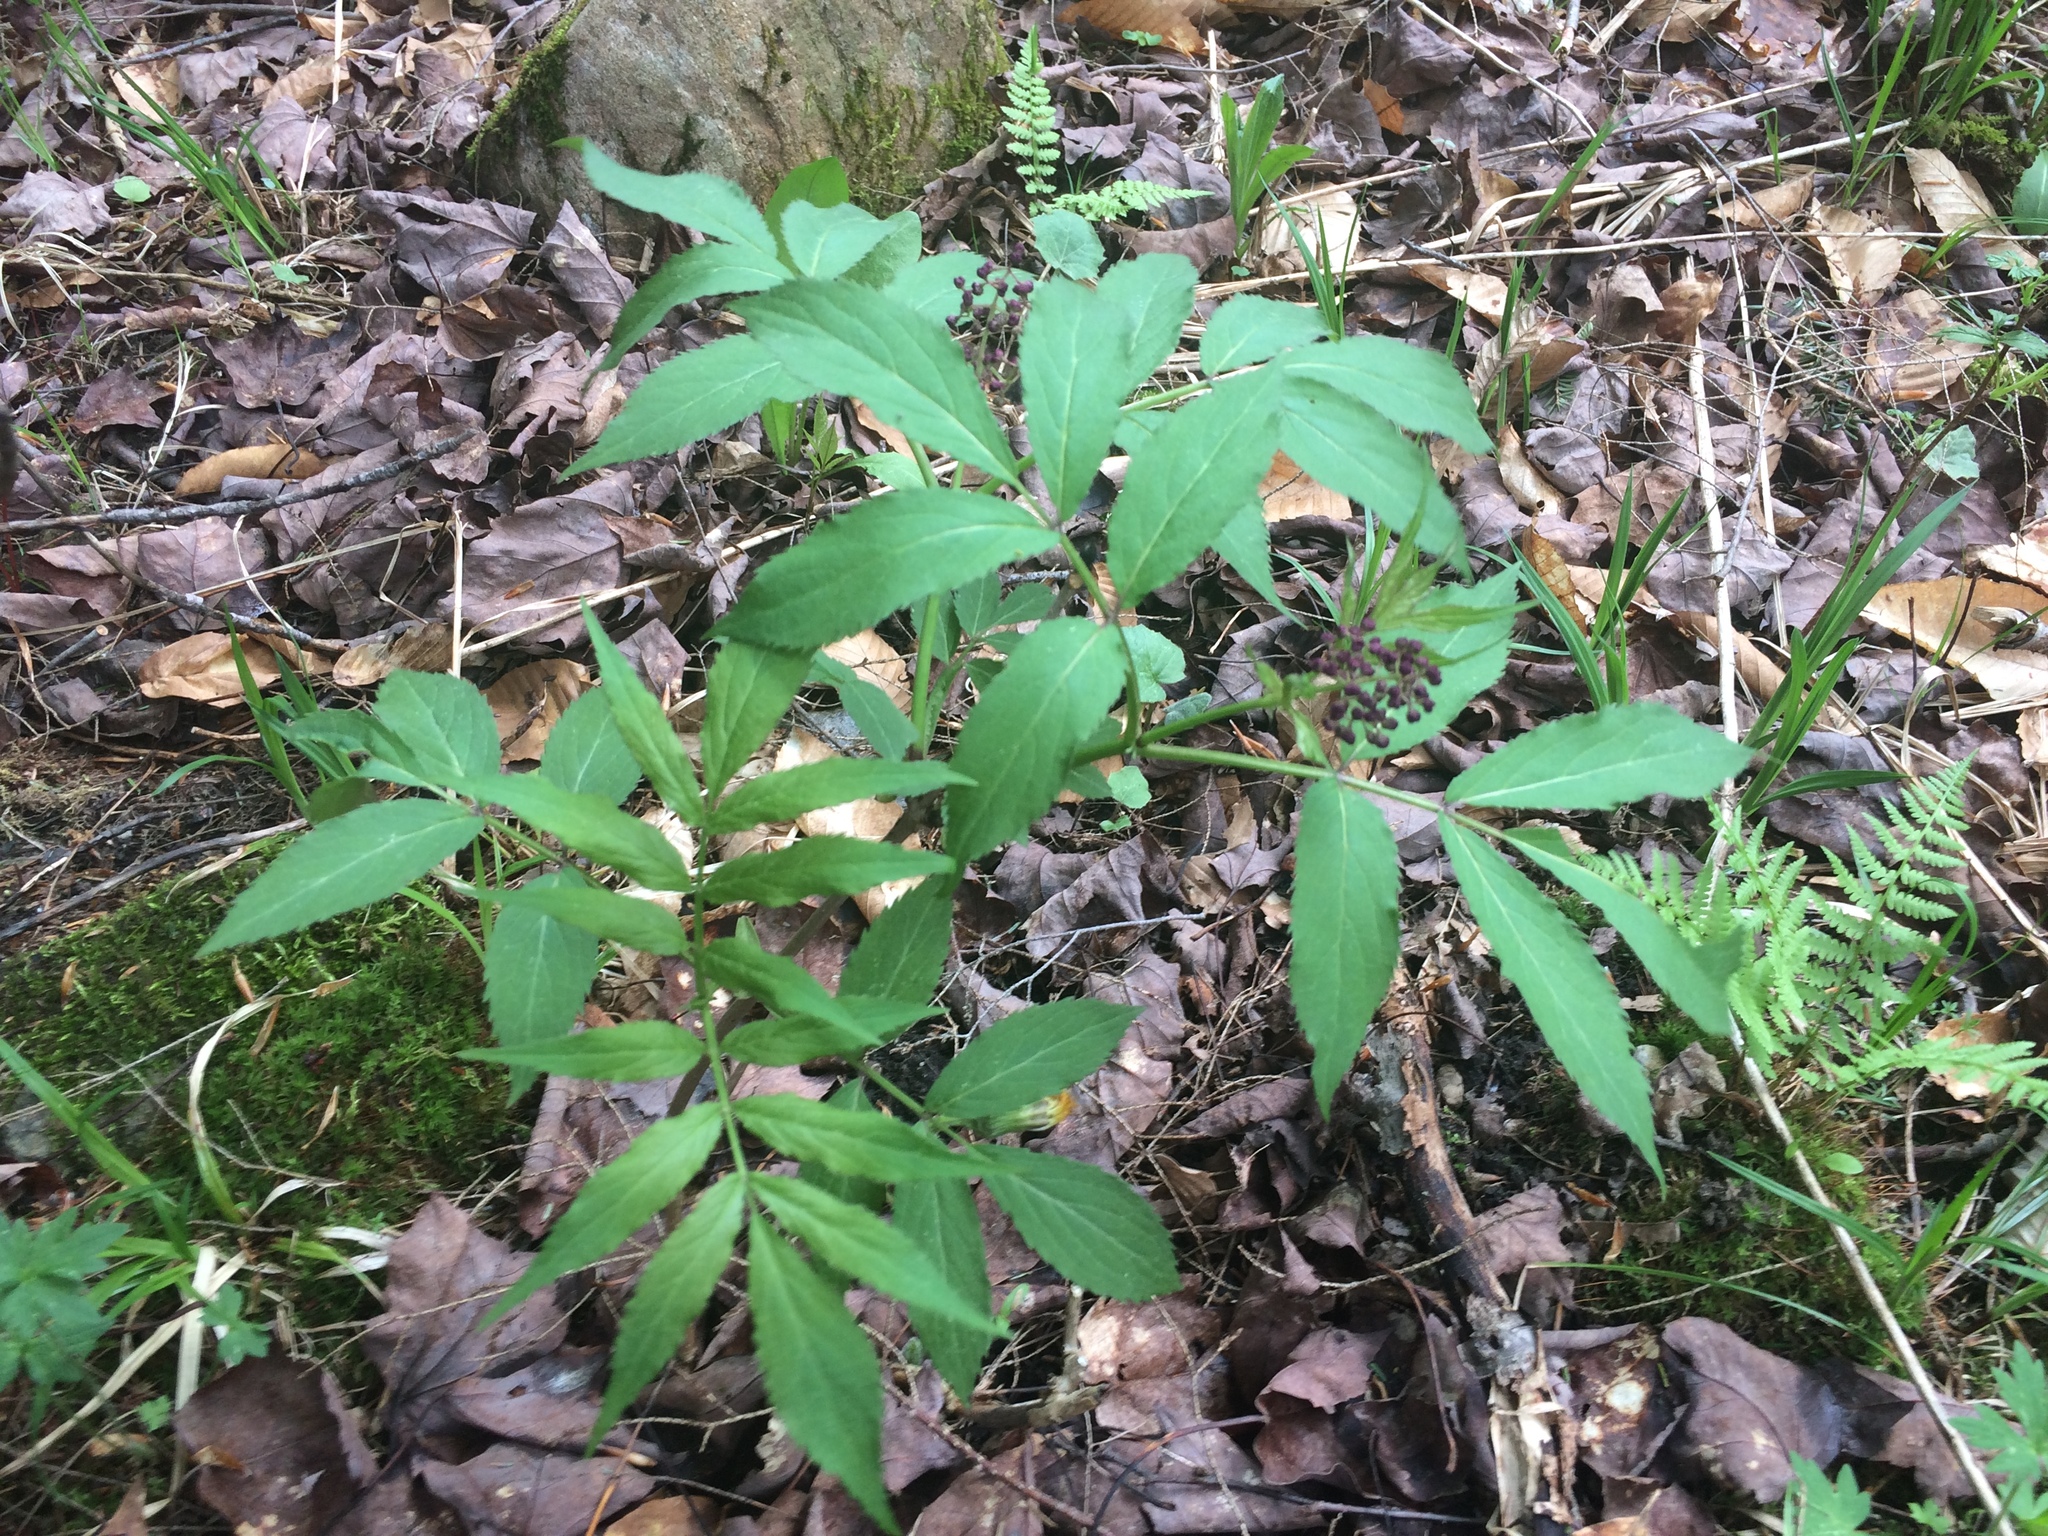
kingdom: Plantae
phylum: Tracheophyta
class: Magnoliopsida
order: Dipsacales
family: Viburnaceae
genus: Sambucus
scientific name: Sambucus racemosa
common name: Red-berried elder
